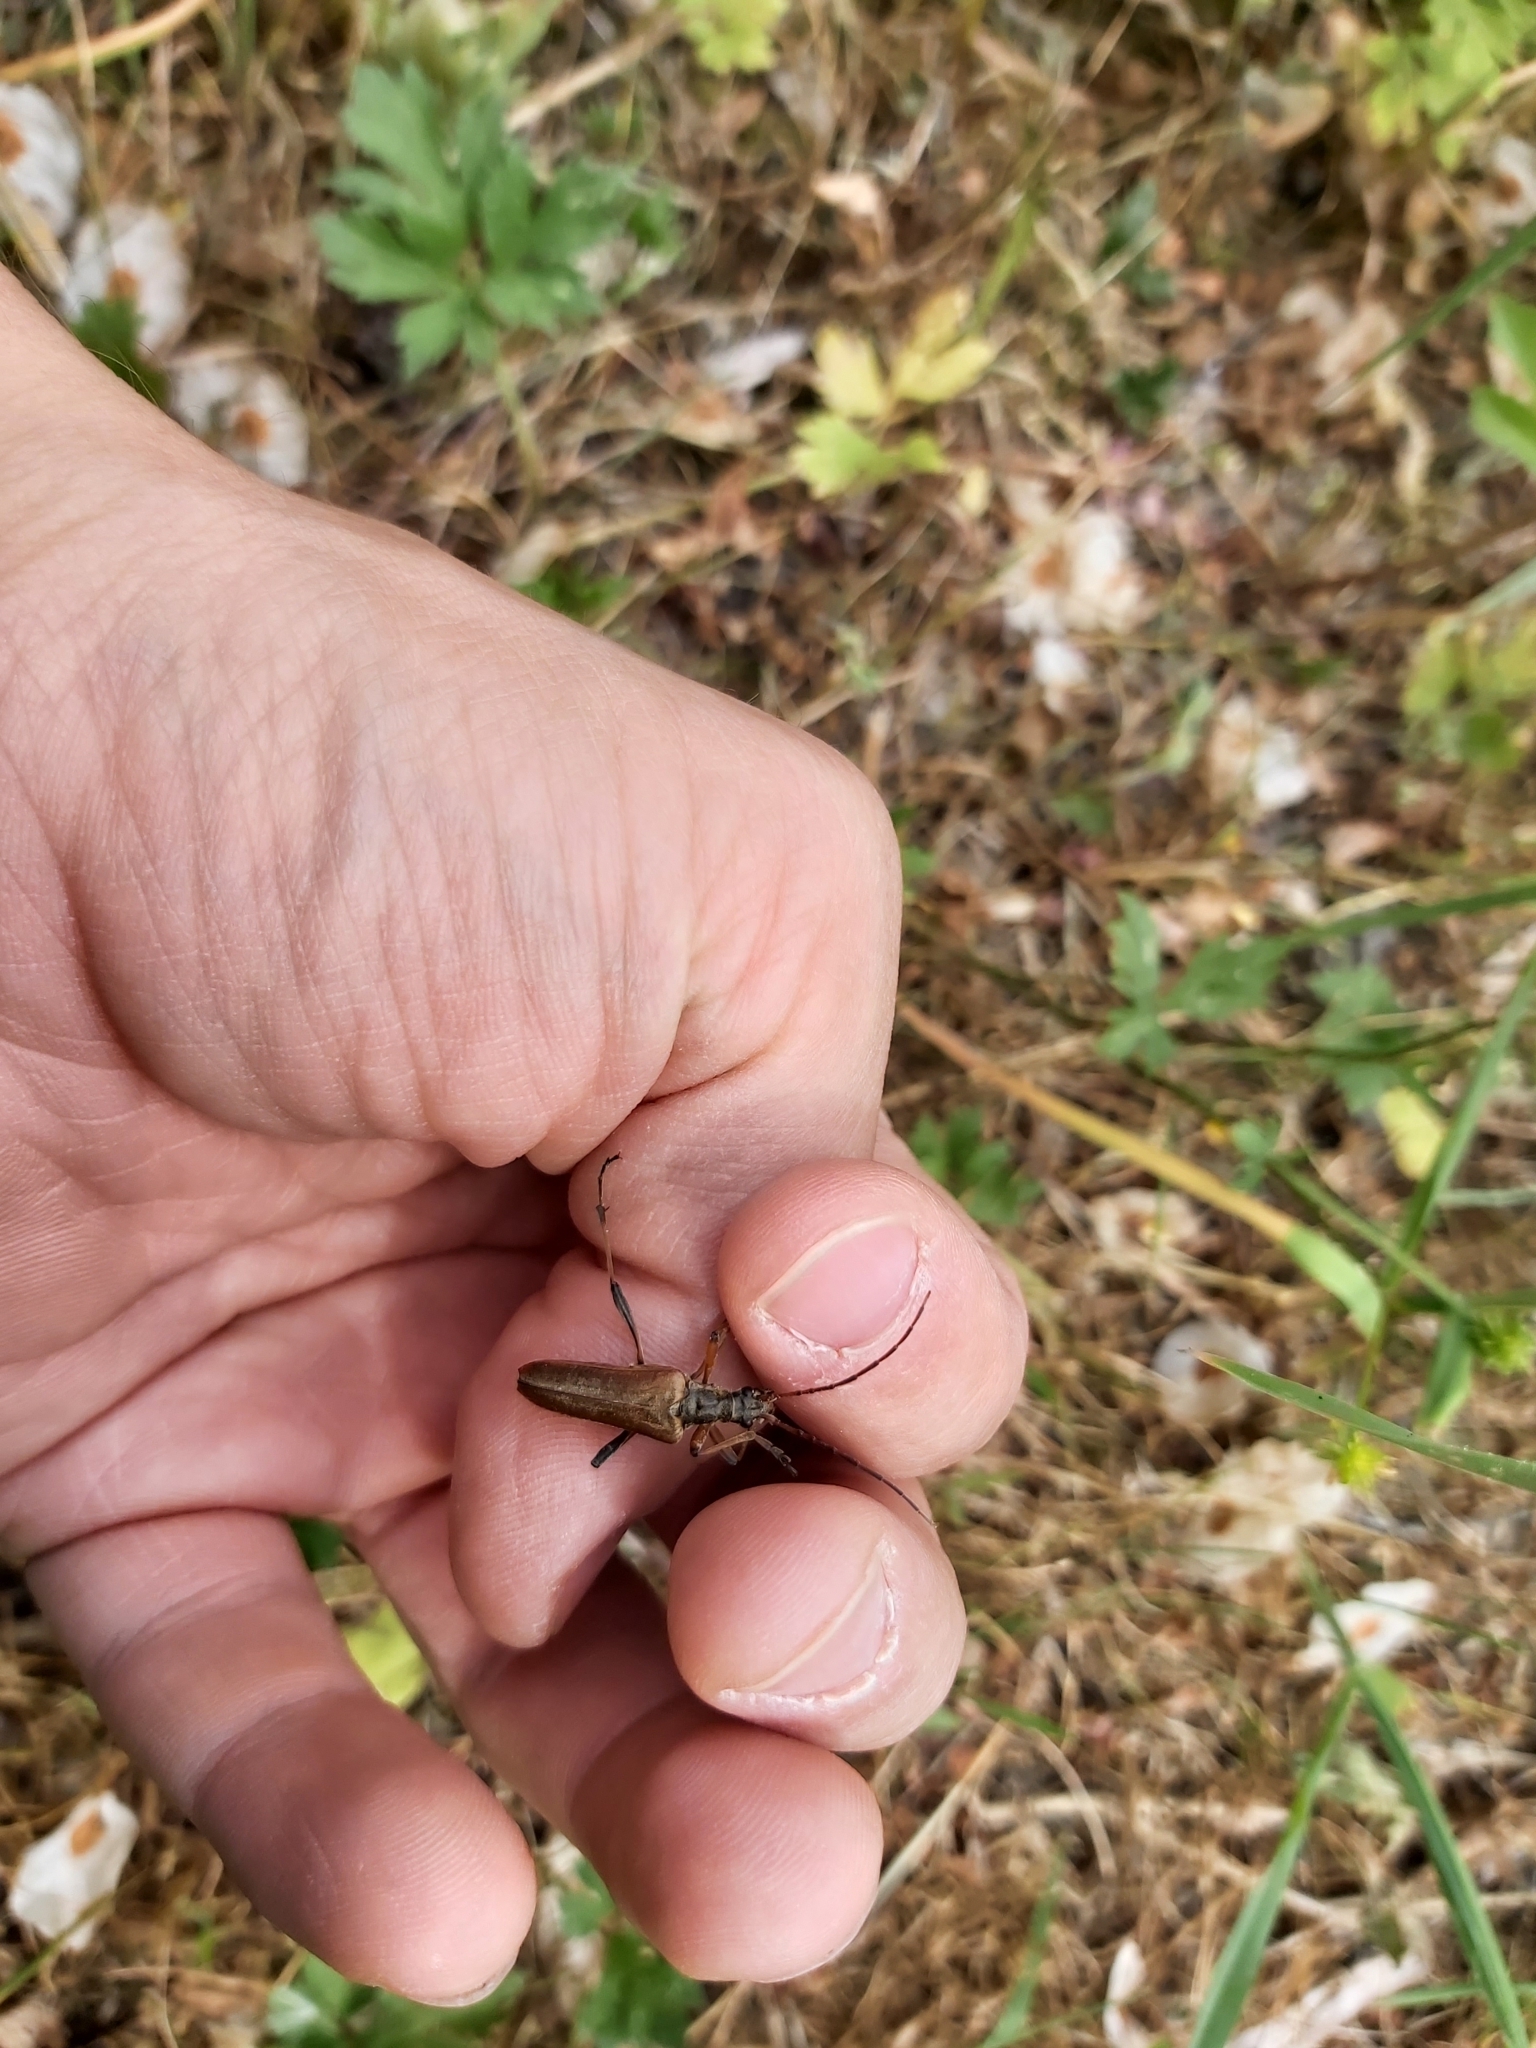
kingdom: Animalia
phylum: Arthropoda
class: Insecta
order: Coleoptera
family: Cerambycidae
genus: Stenocorus
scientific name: Stenocorus meridianus
